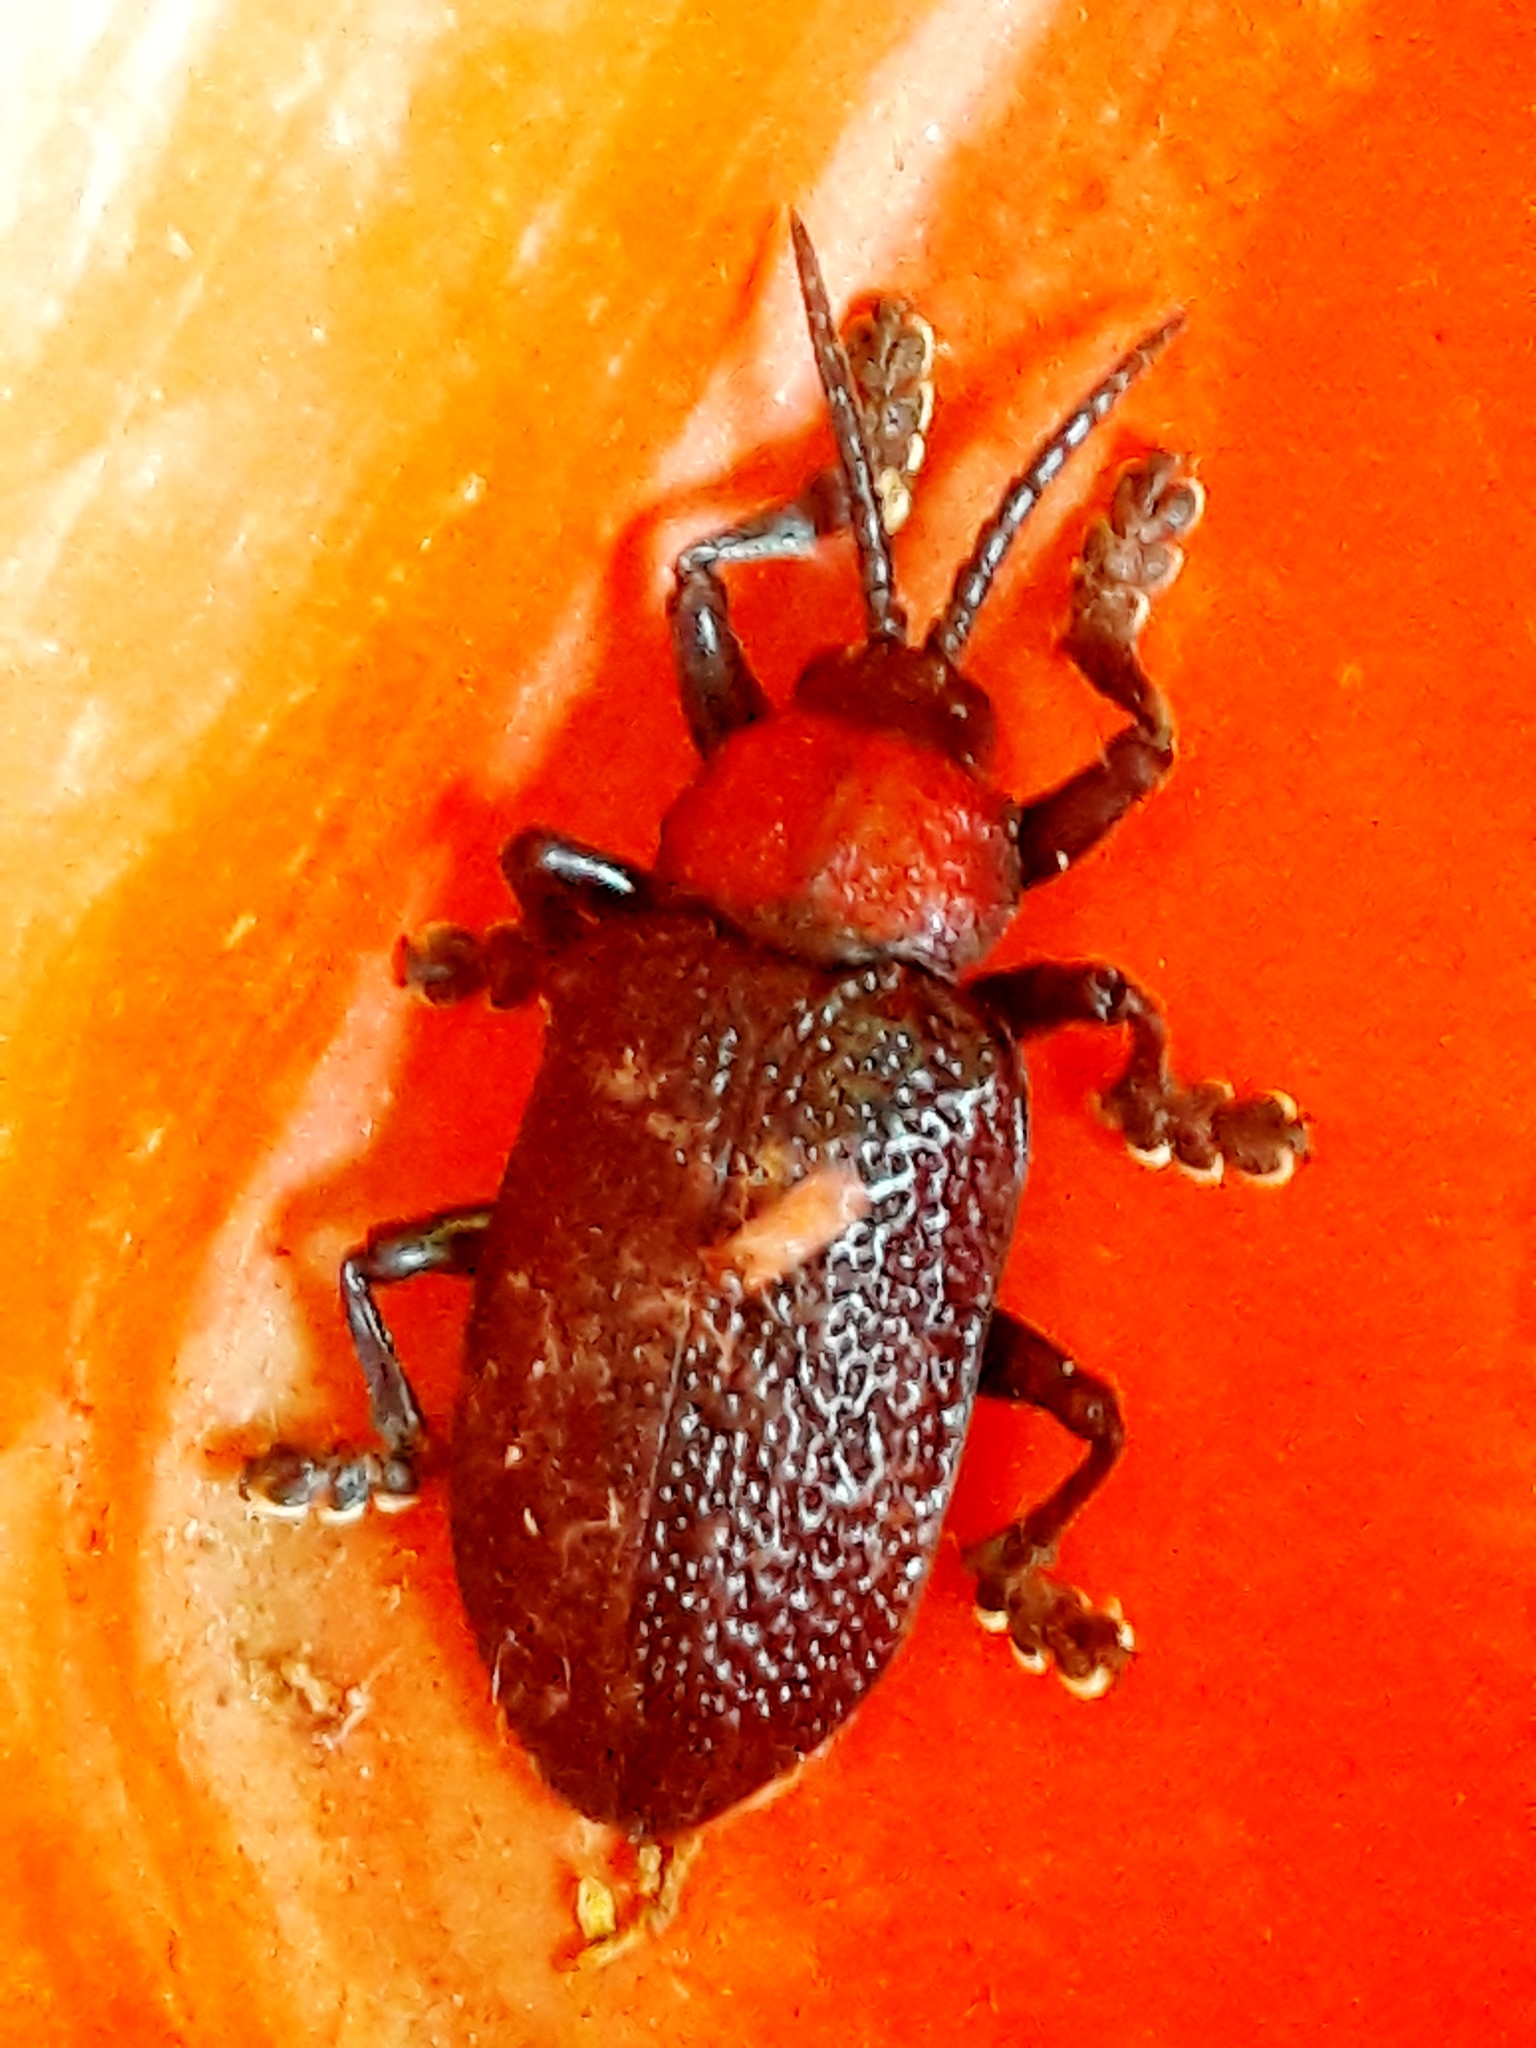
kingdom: Animalia
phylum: Arthropoda
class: Insecta
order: Coleoptera
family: Chrysomelidae
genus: Coraliomela
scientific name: Coraliomela brunnea
